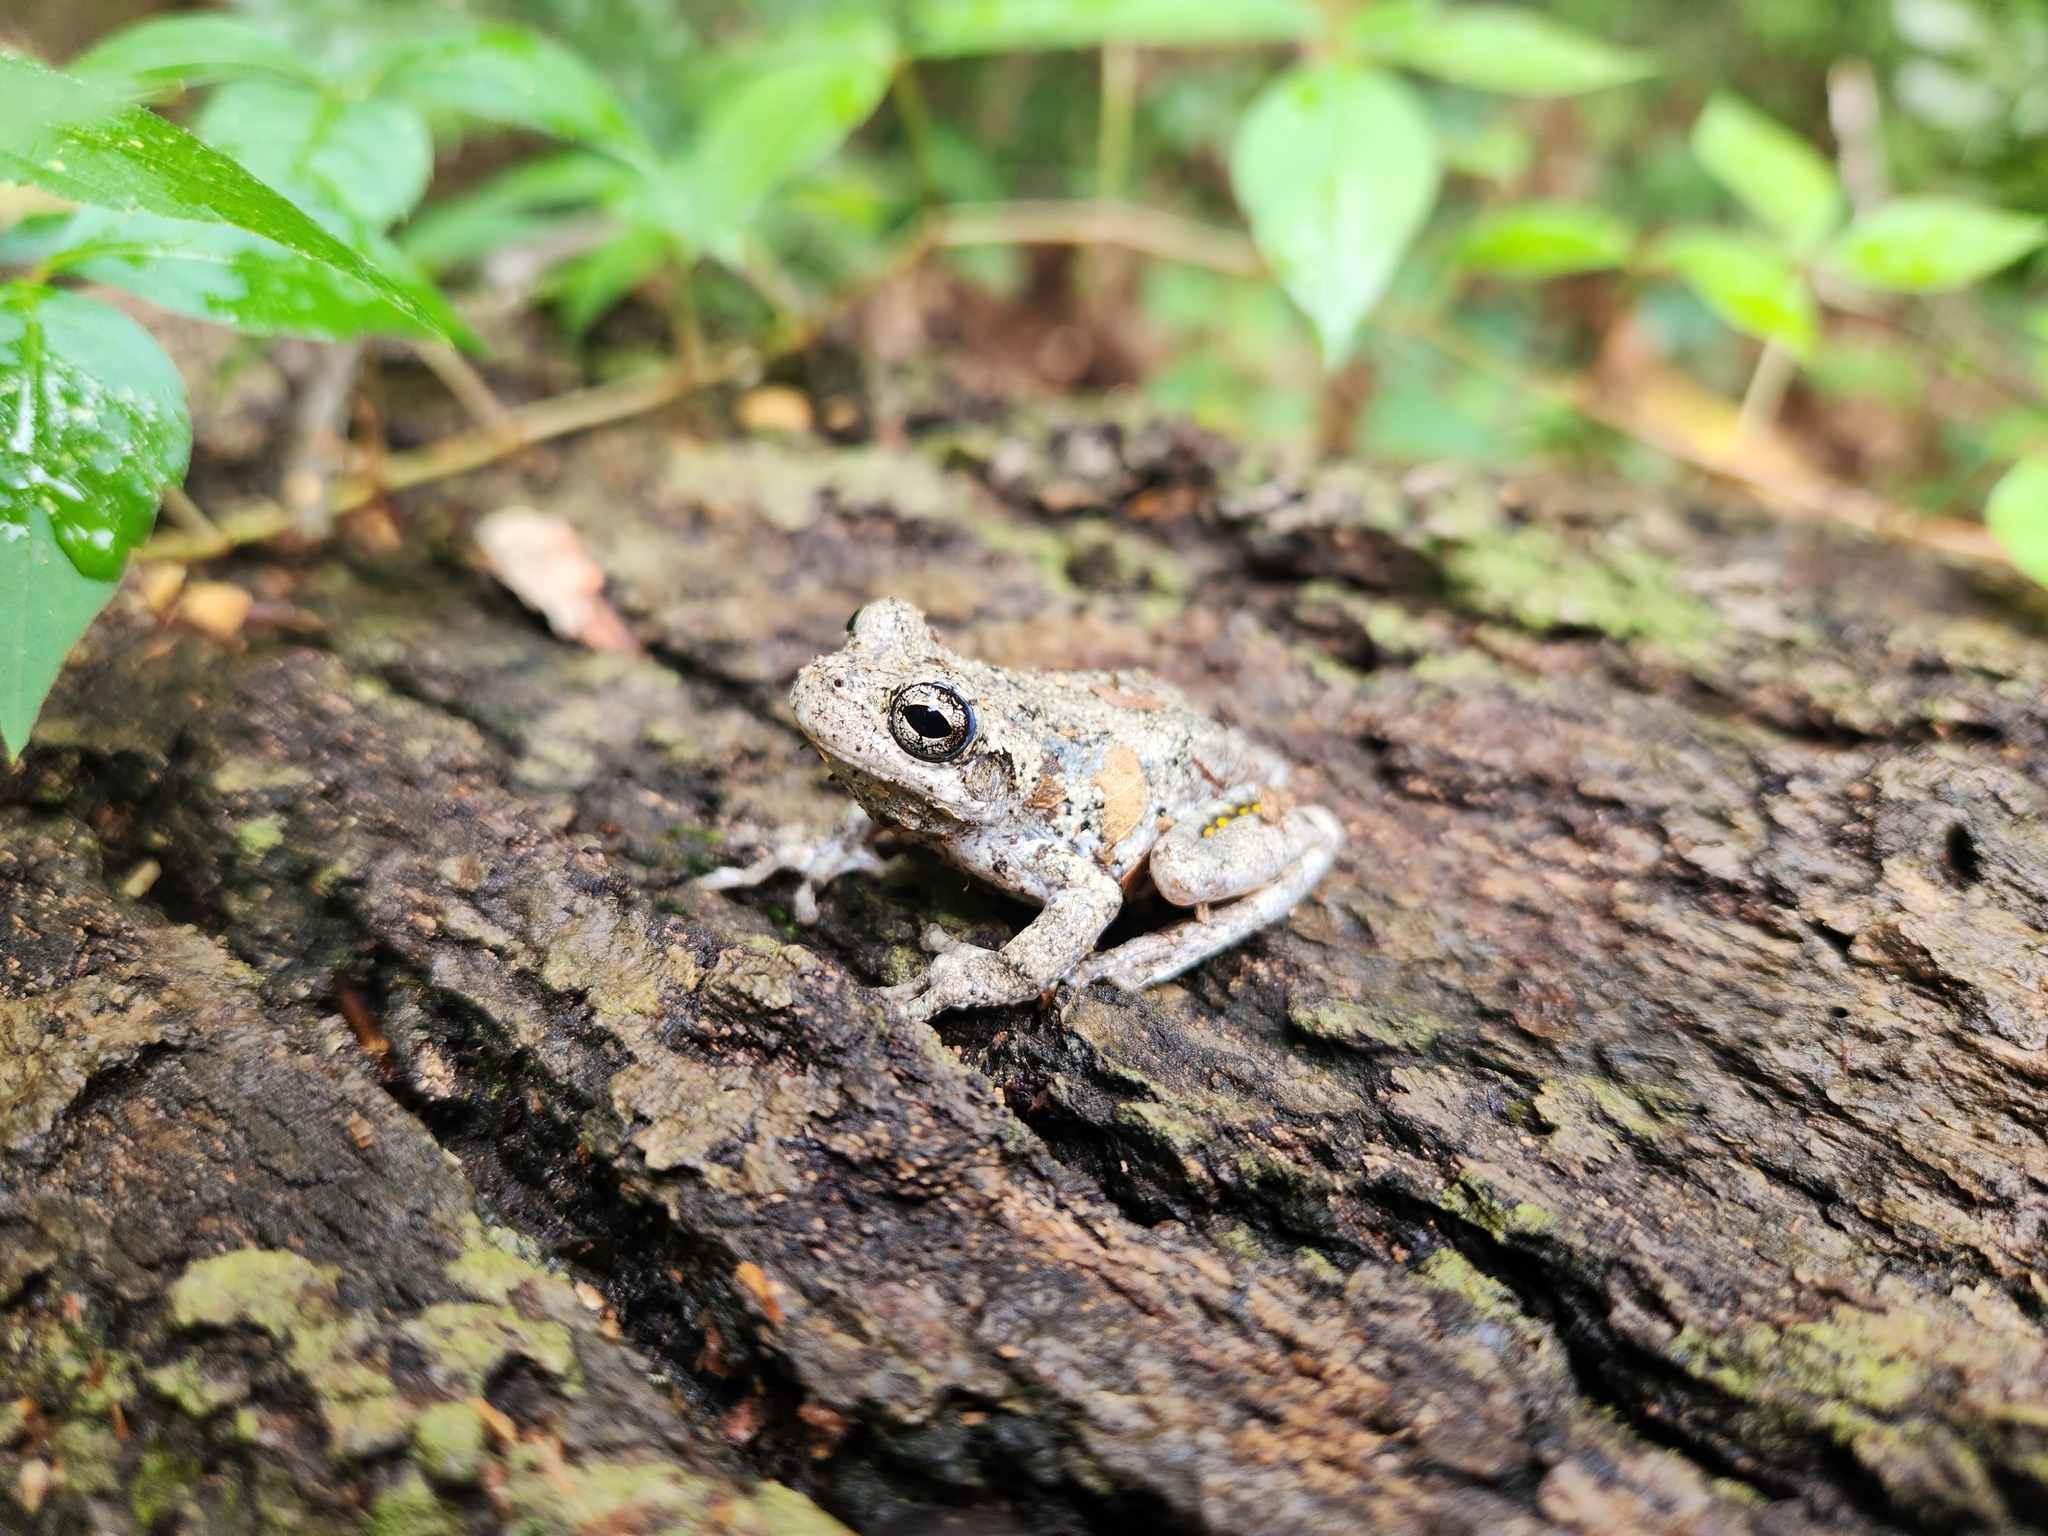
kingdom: Animalia
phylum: Chordata
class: Amphibia
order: Anura
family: Hylidae
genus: Dryophytes
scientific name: Dryophytes chrysoscelis
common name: Cope's gray treefrog
